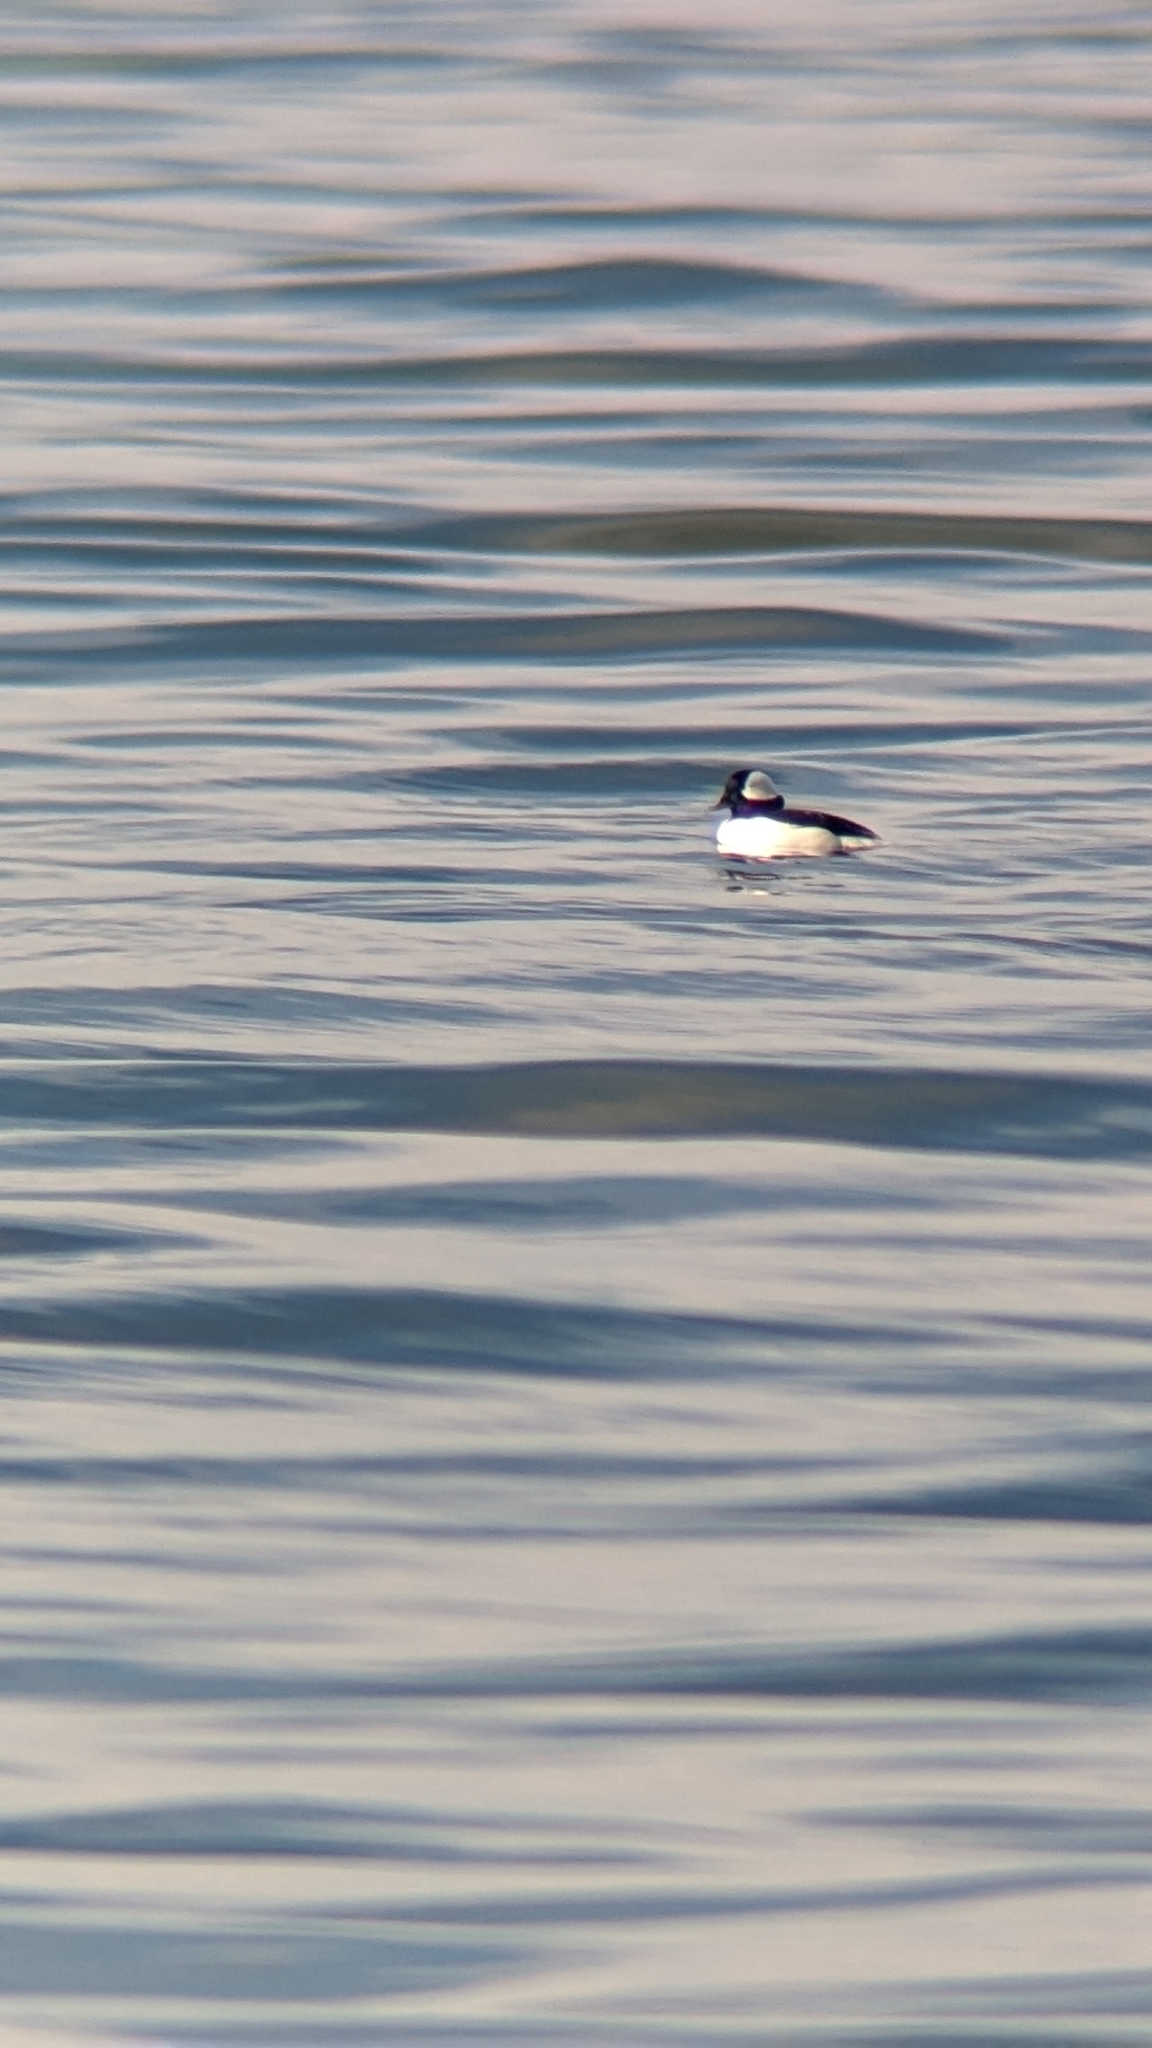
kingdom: Animalia
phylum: Chordata
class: Aves
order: Anseriformes
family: Anatidae
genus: Bucephala
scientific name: Bucephala albeola
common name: Bufflehead
